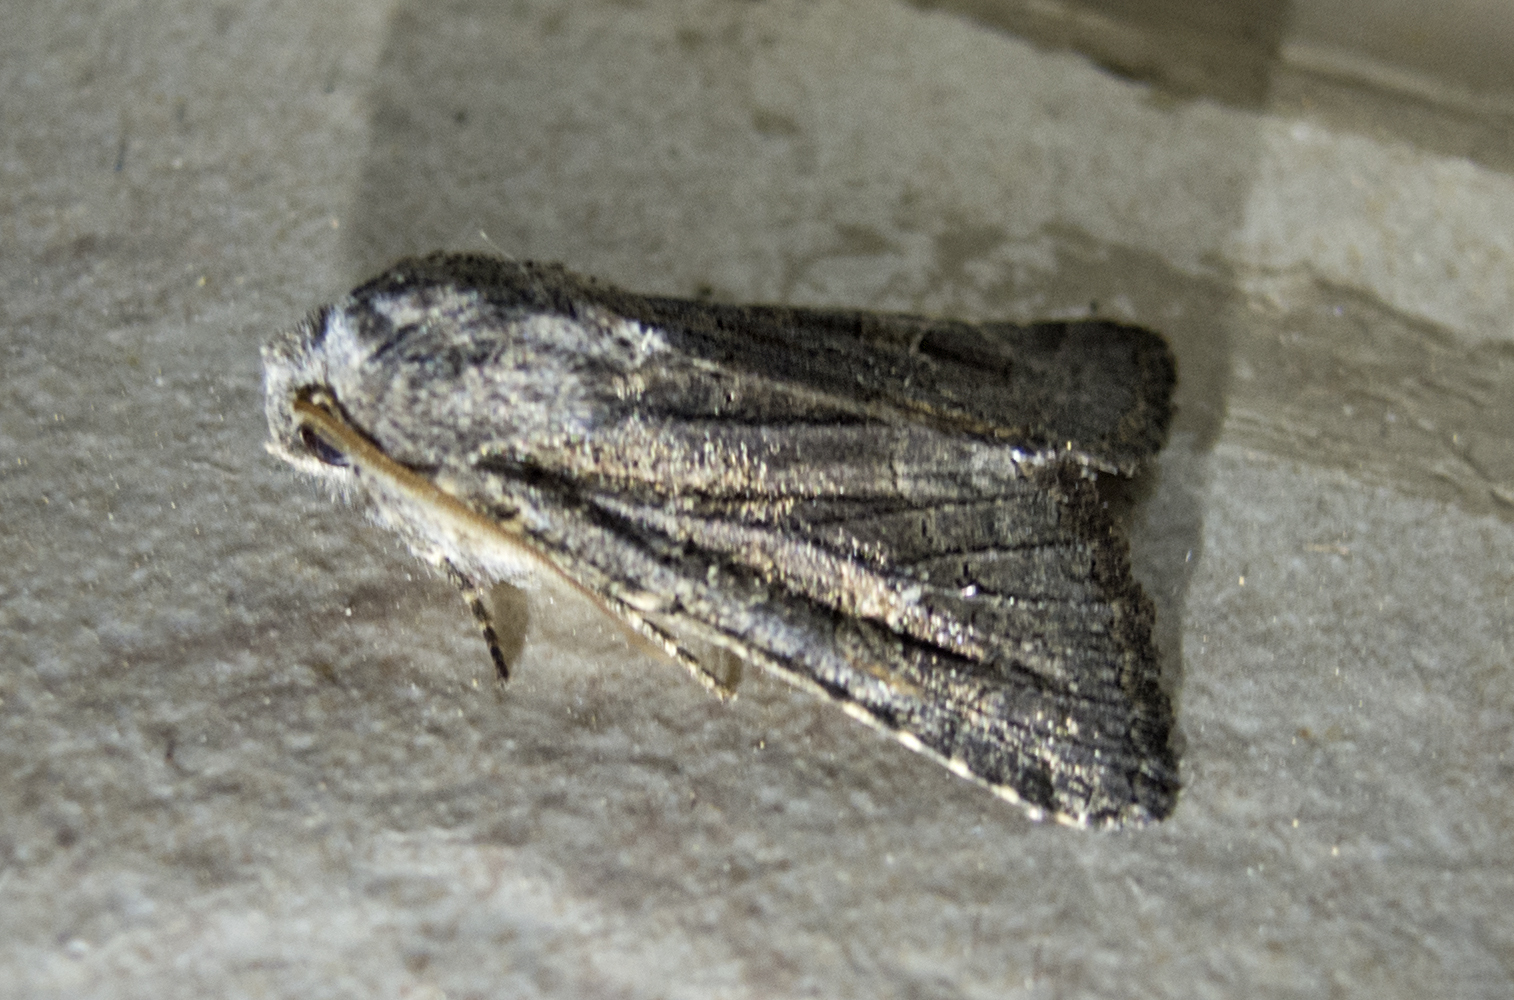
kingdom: Animalia
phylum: Arthropoda
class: Insecta
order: Lepidoptera
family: Noctuidae
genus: Aporophyla
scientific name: Aporophyla lutulenta
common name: Deep-brown dart
